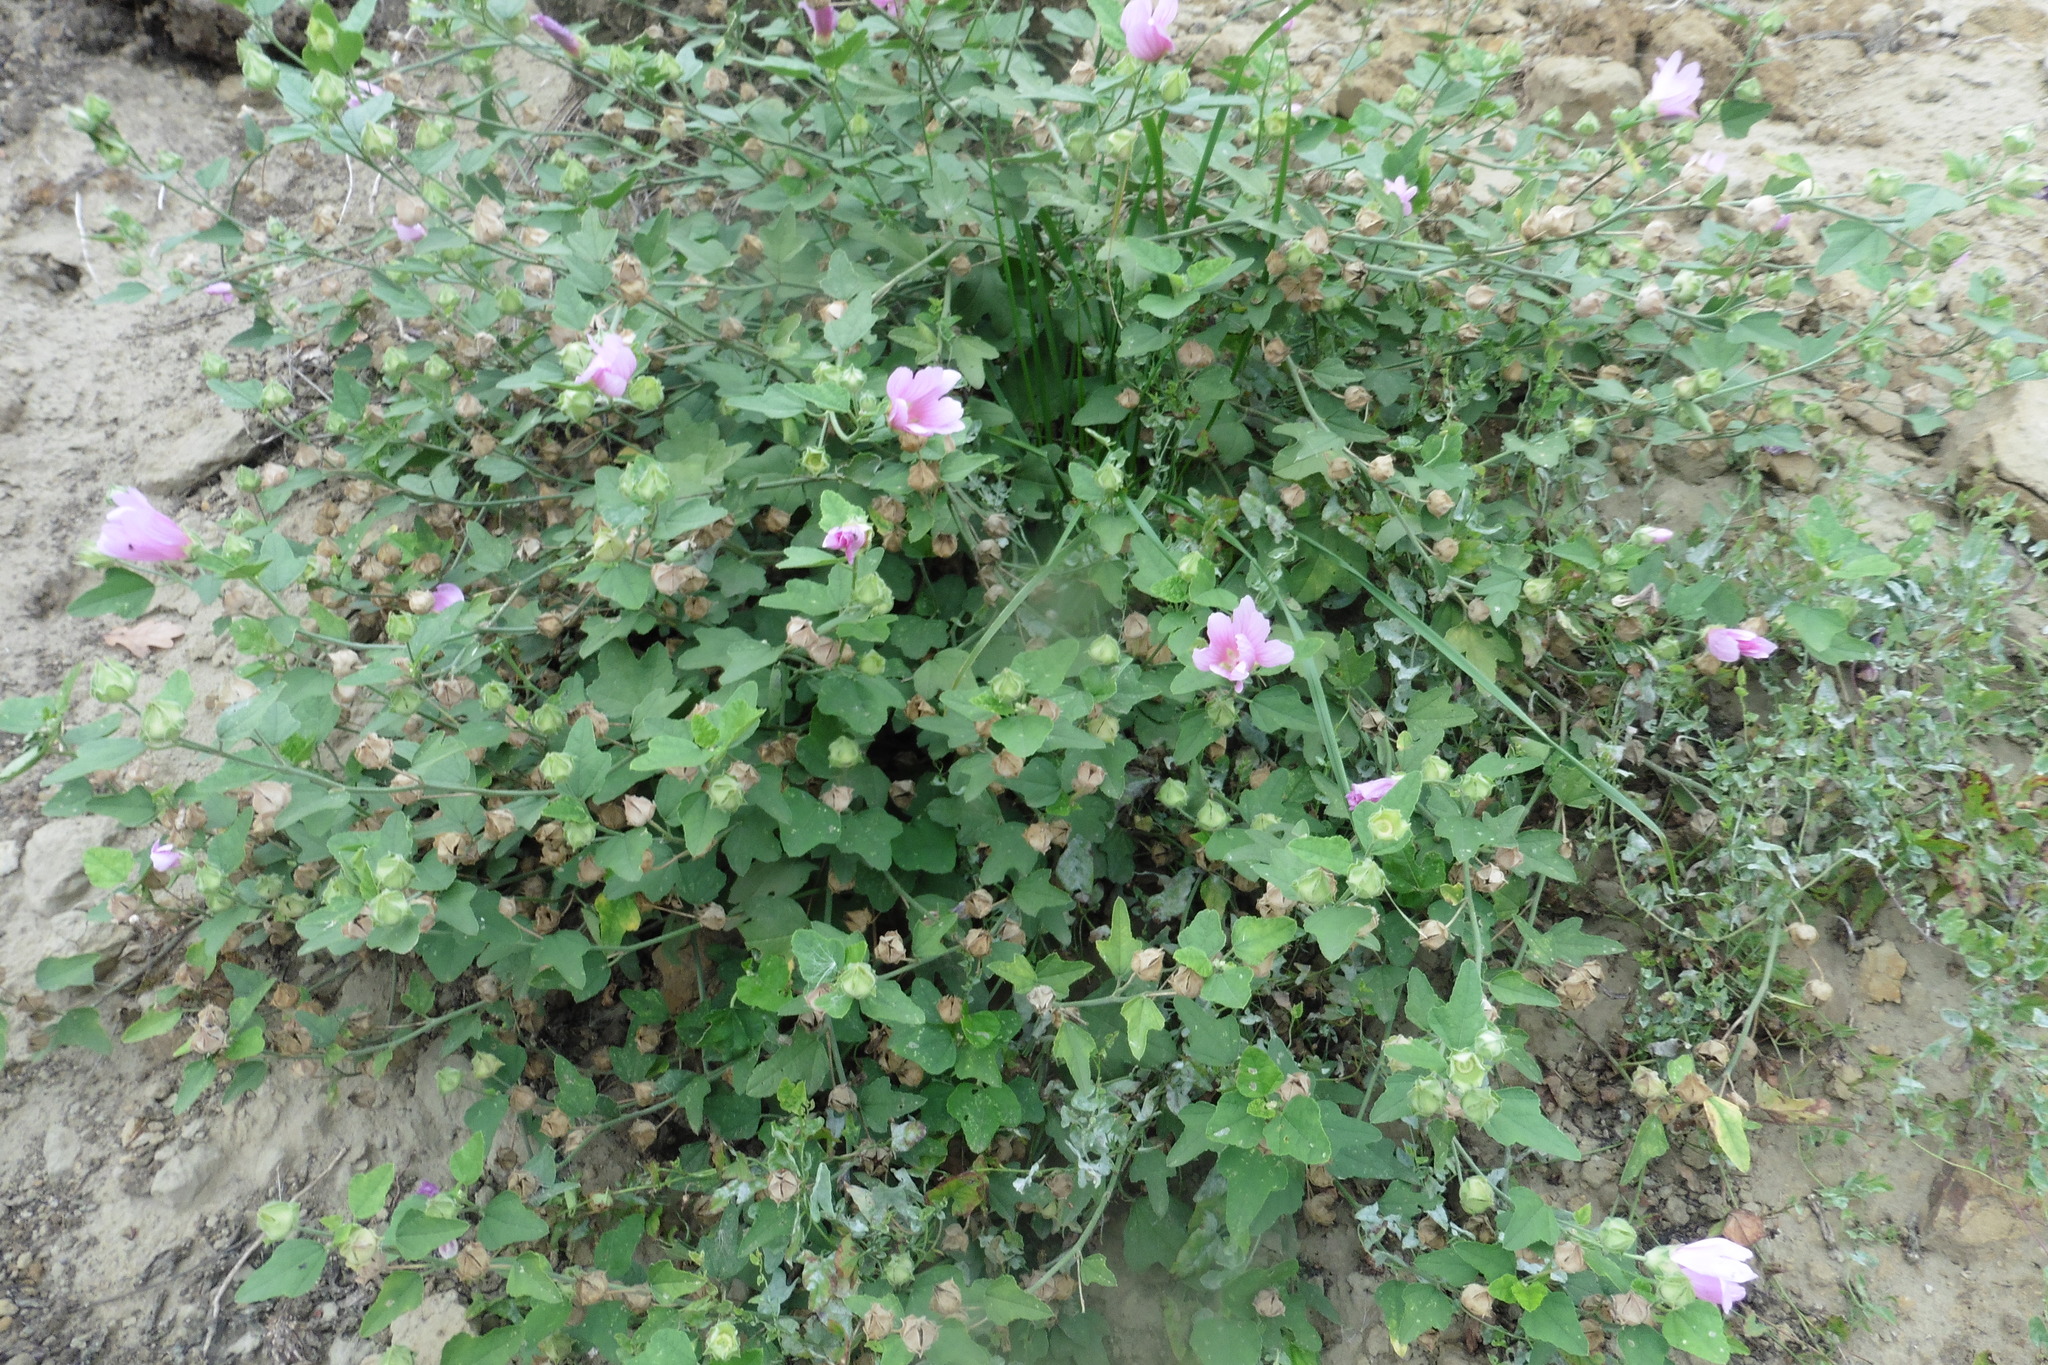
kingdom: Plantae
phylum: Tracheophyta
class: Magnoliopsida
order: Malvales
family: Malvaceae
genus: Malva
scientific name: Malva thuringiaca
